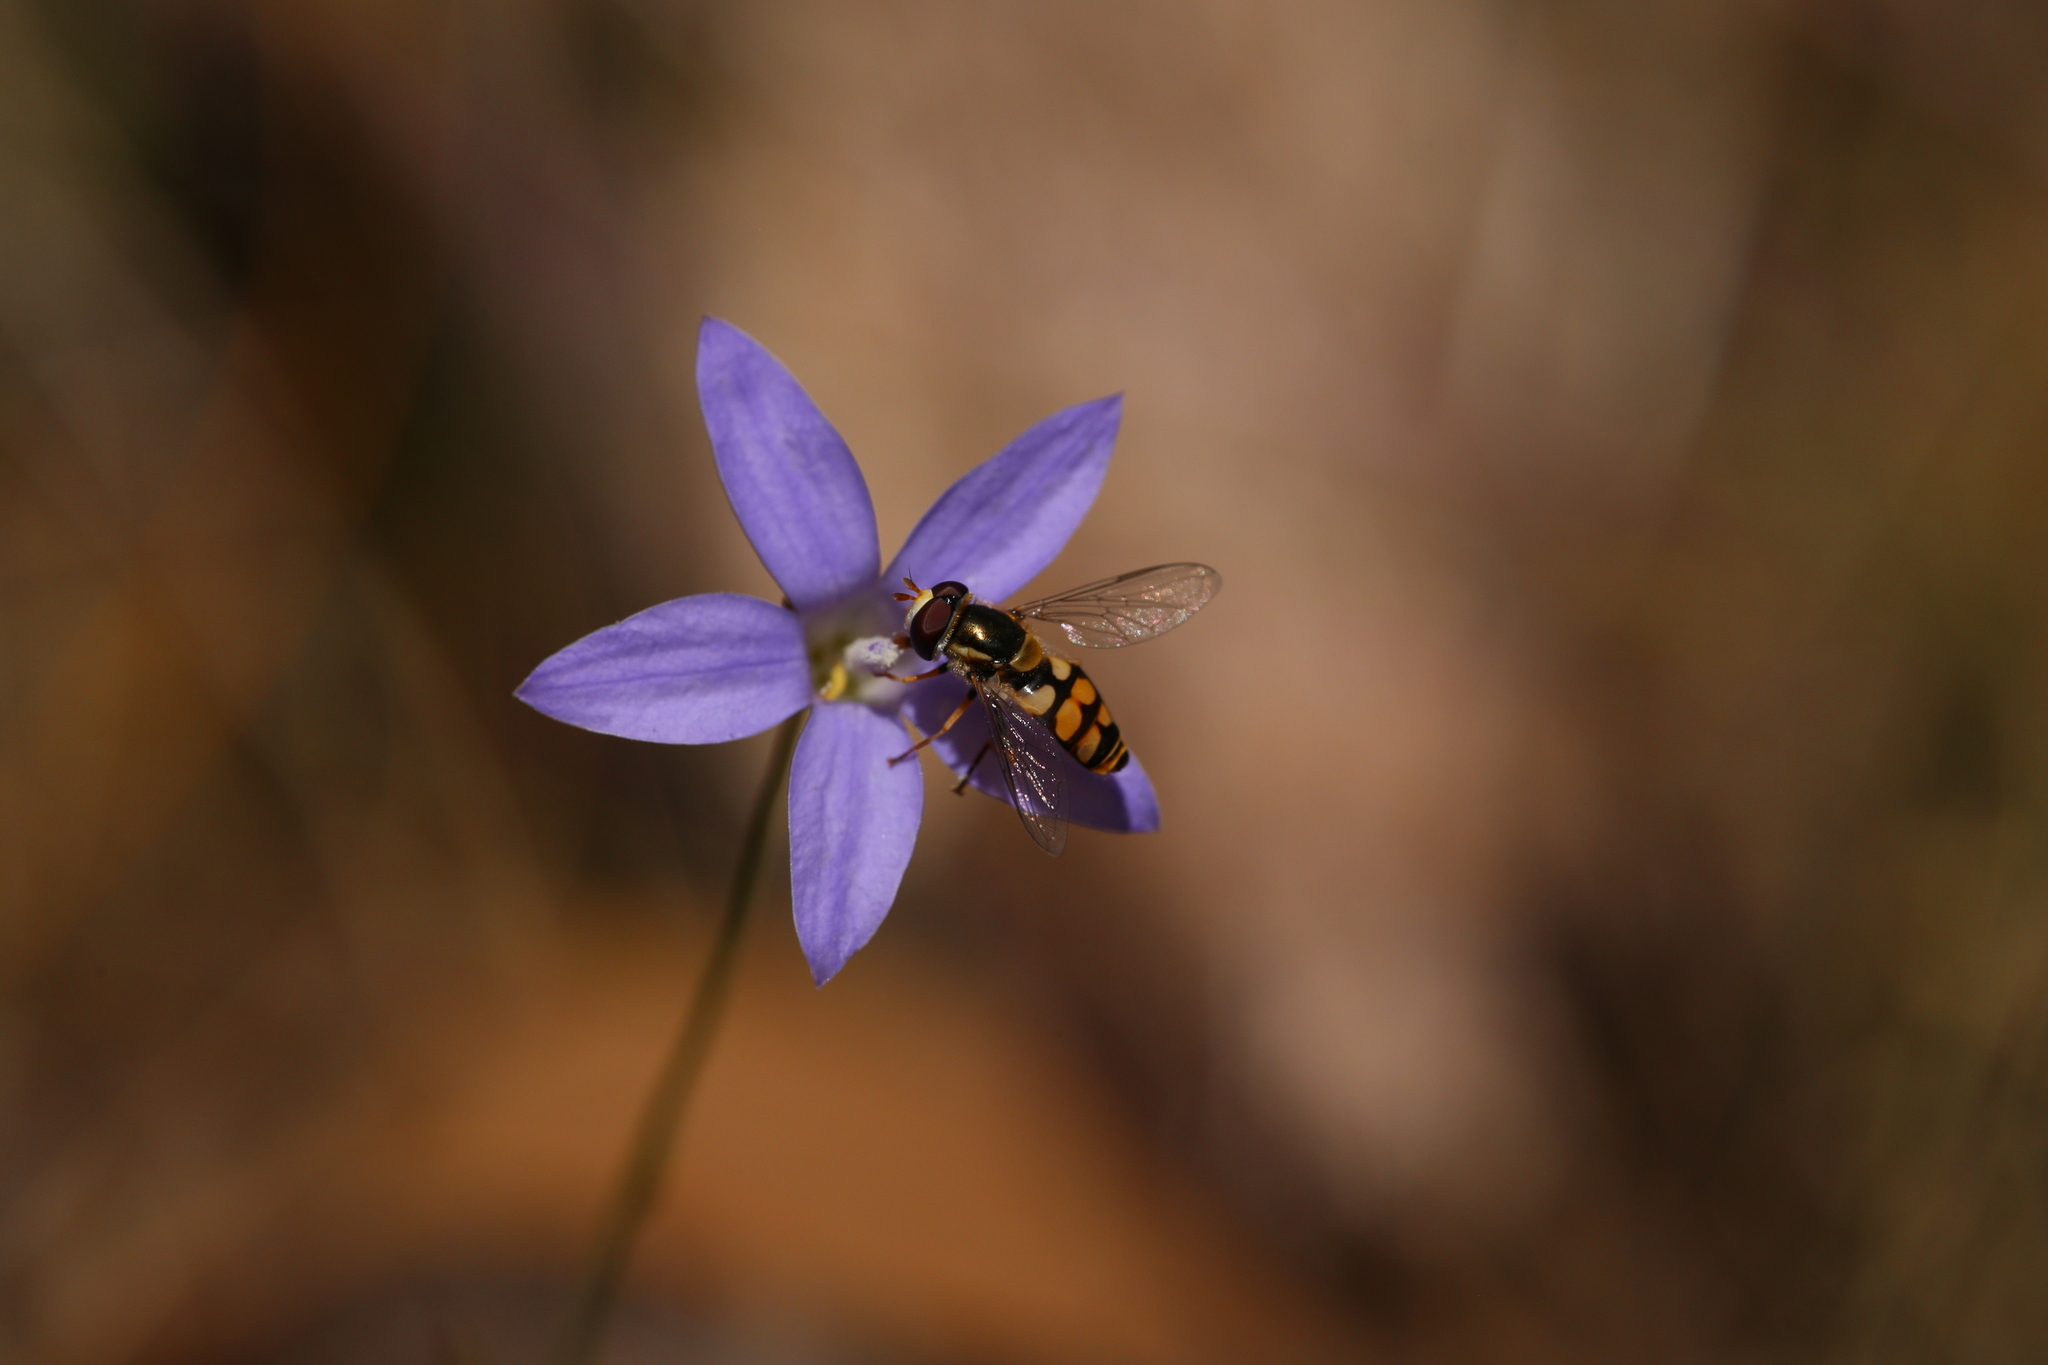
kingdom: Animalia
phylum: Arthropoda
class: Insecta
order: Diptera
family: Syrphidae
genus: Simosyrphus
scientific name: Simosyrphus grandicornis
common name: Hoverfly
